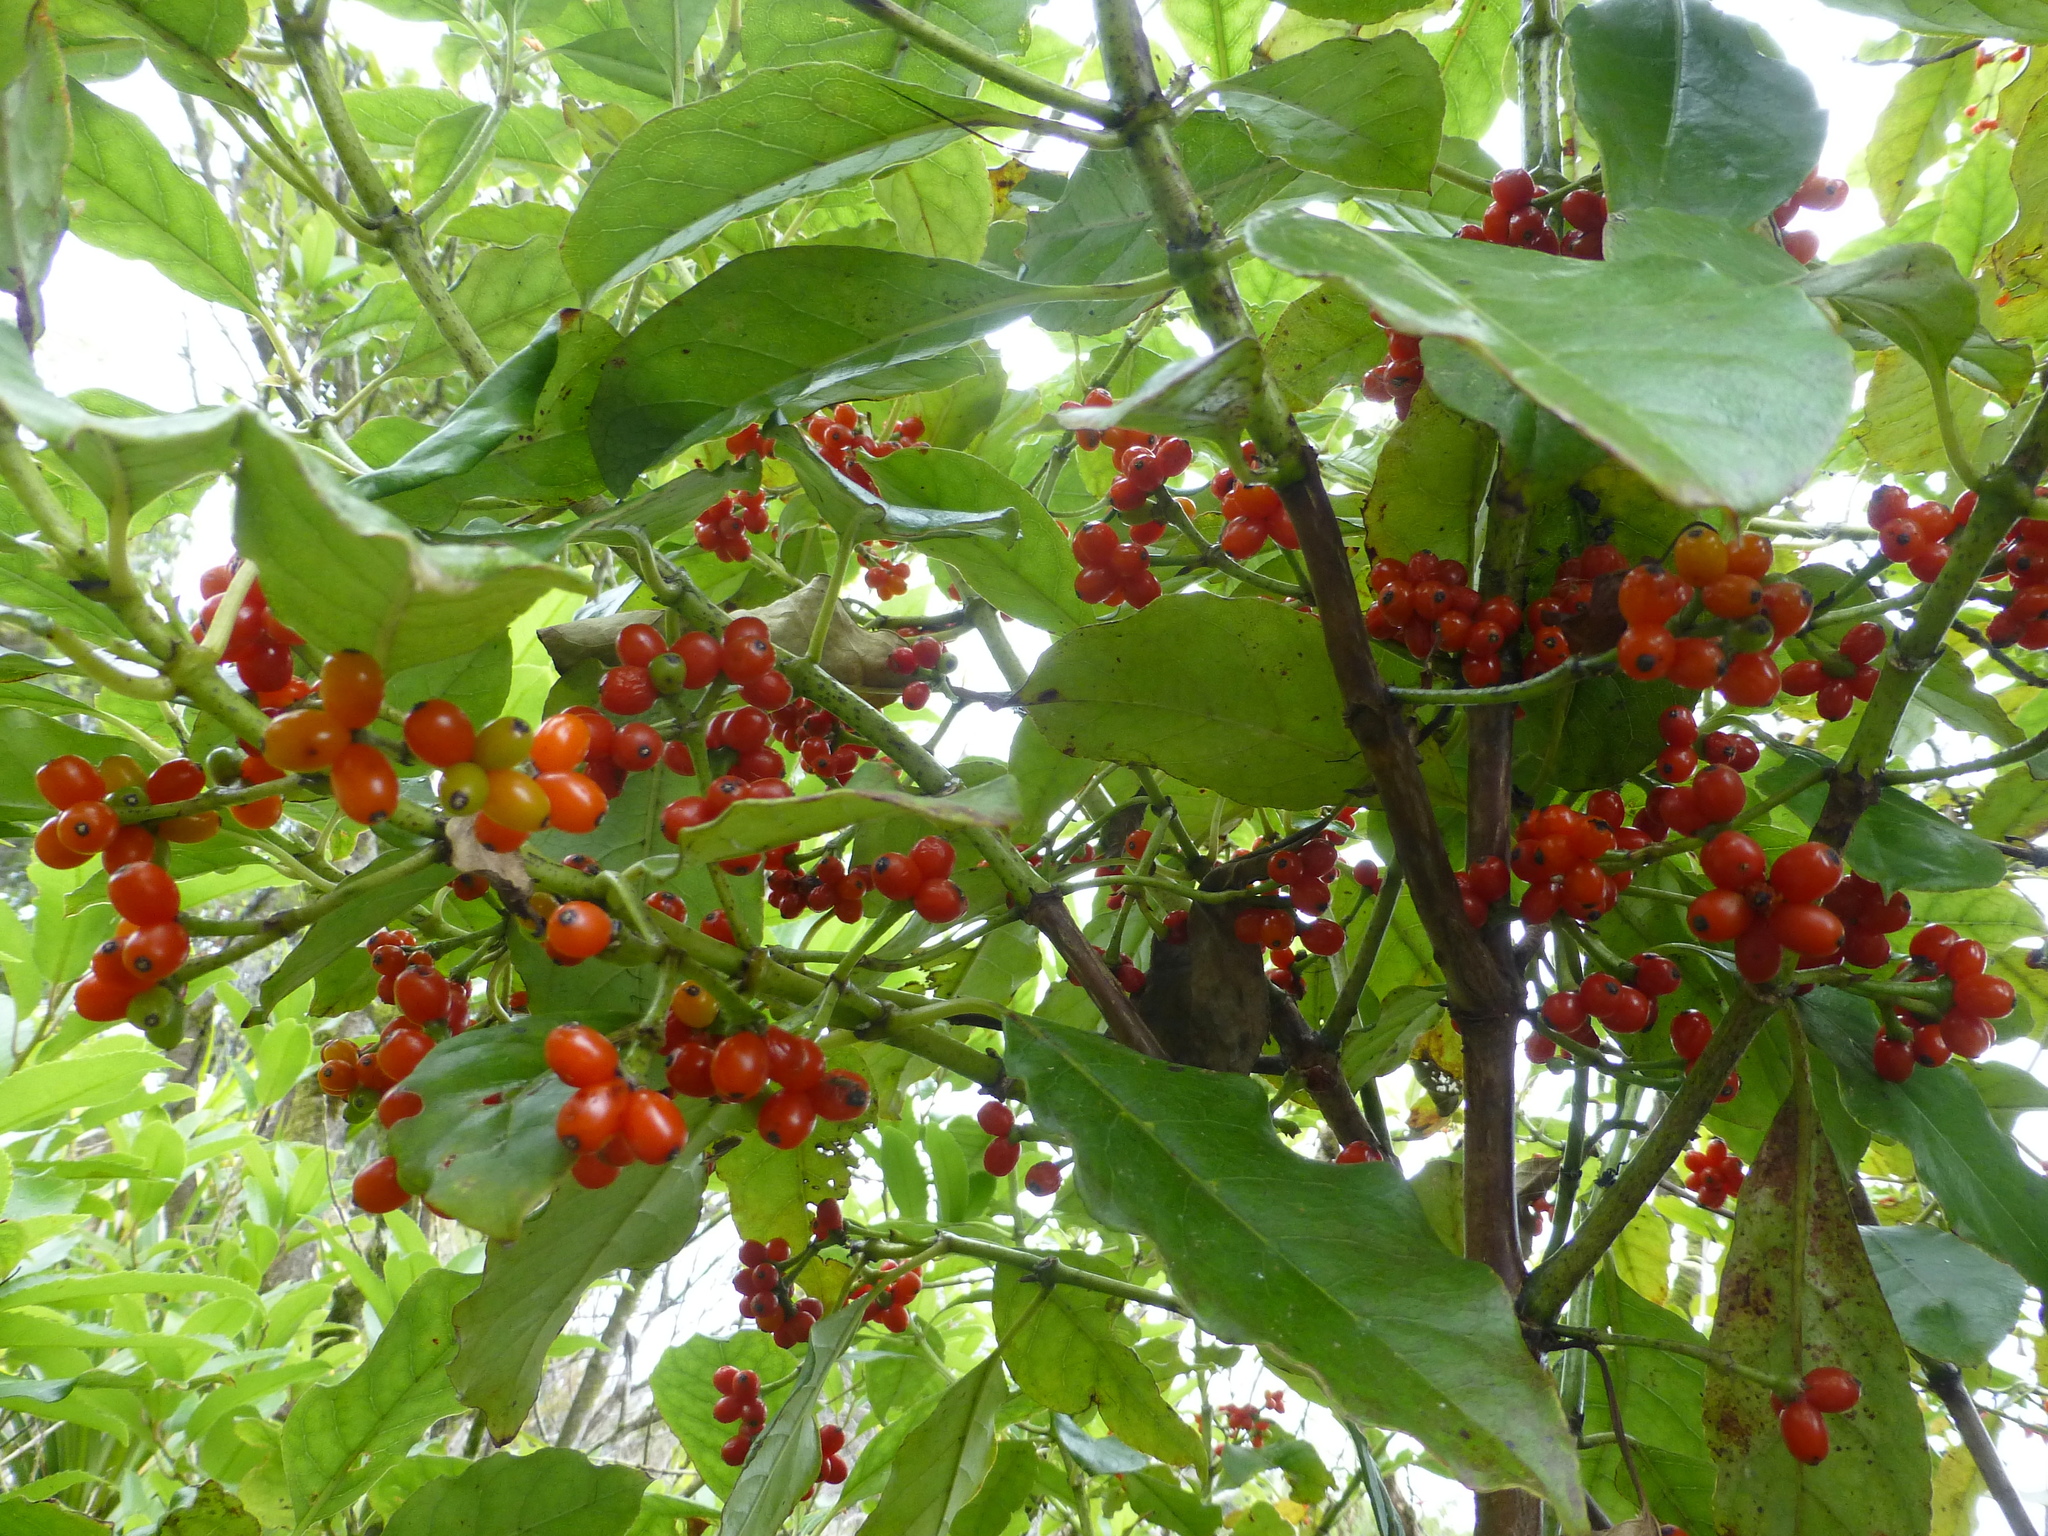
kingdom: Plantae
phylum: Tracheophyta
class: Magnoliopsida
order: Gentianales
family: Rubiaceae
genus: Coprosma
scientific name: Coprosma autumnalis
